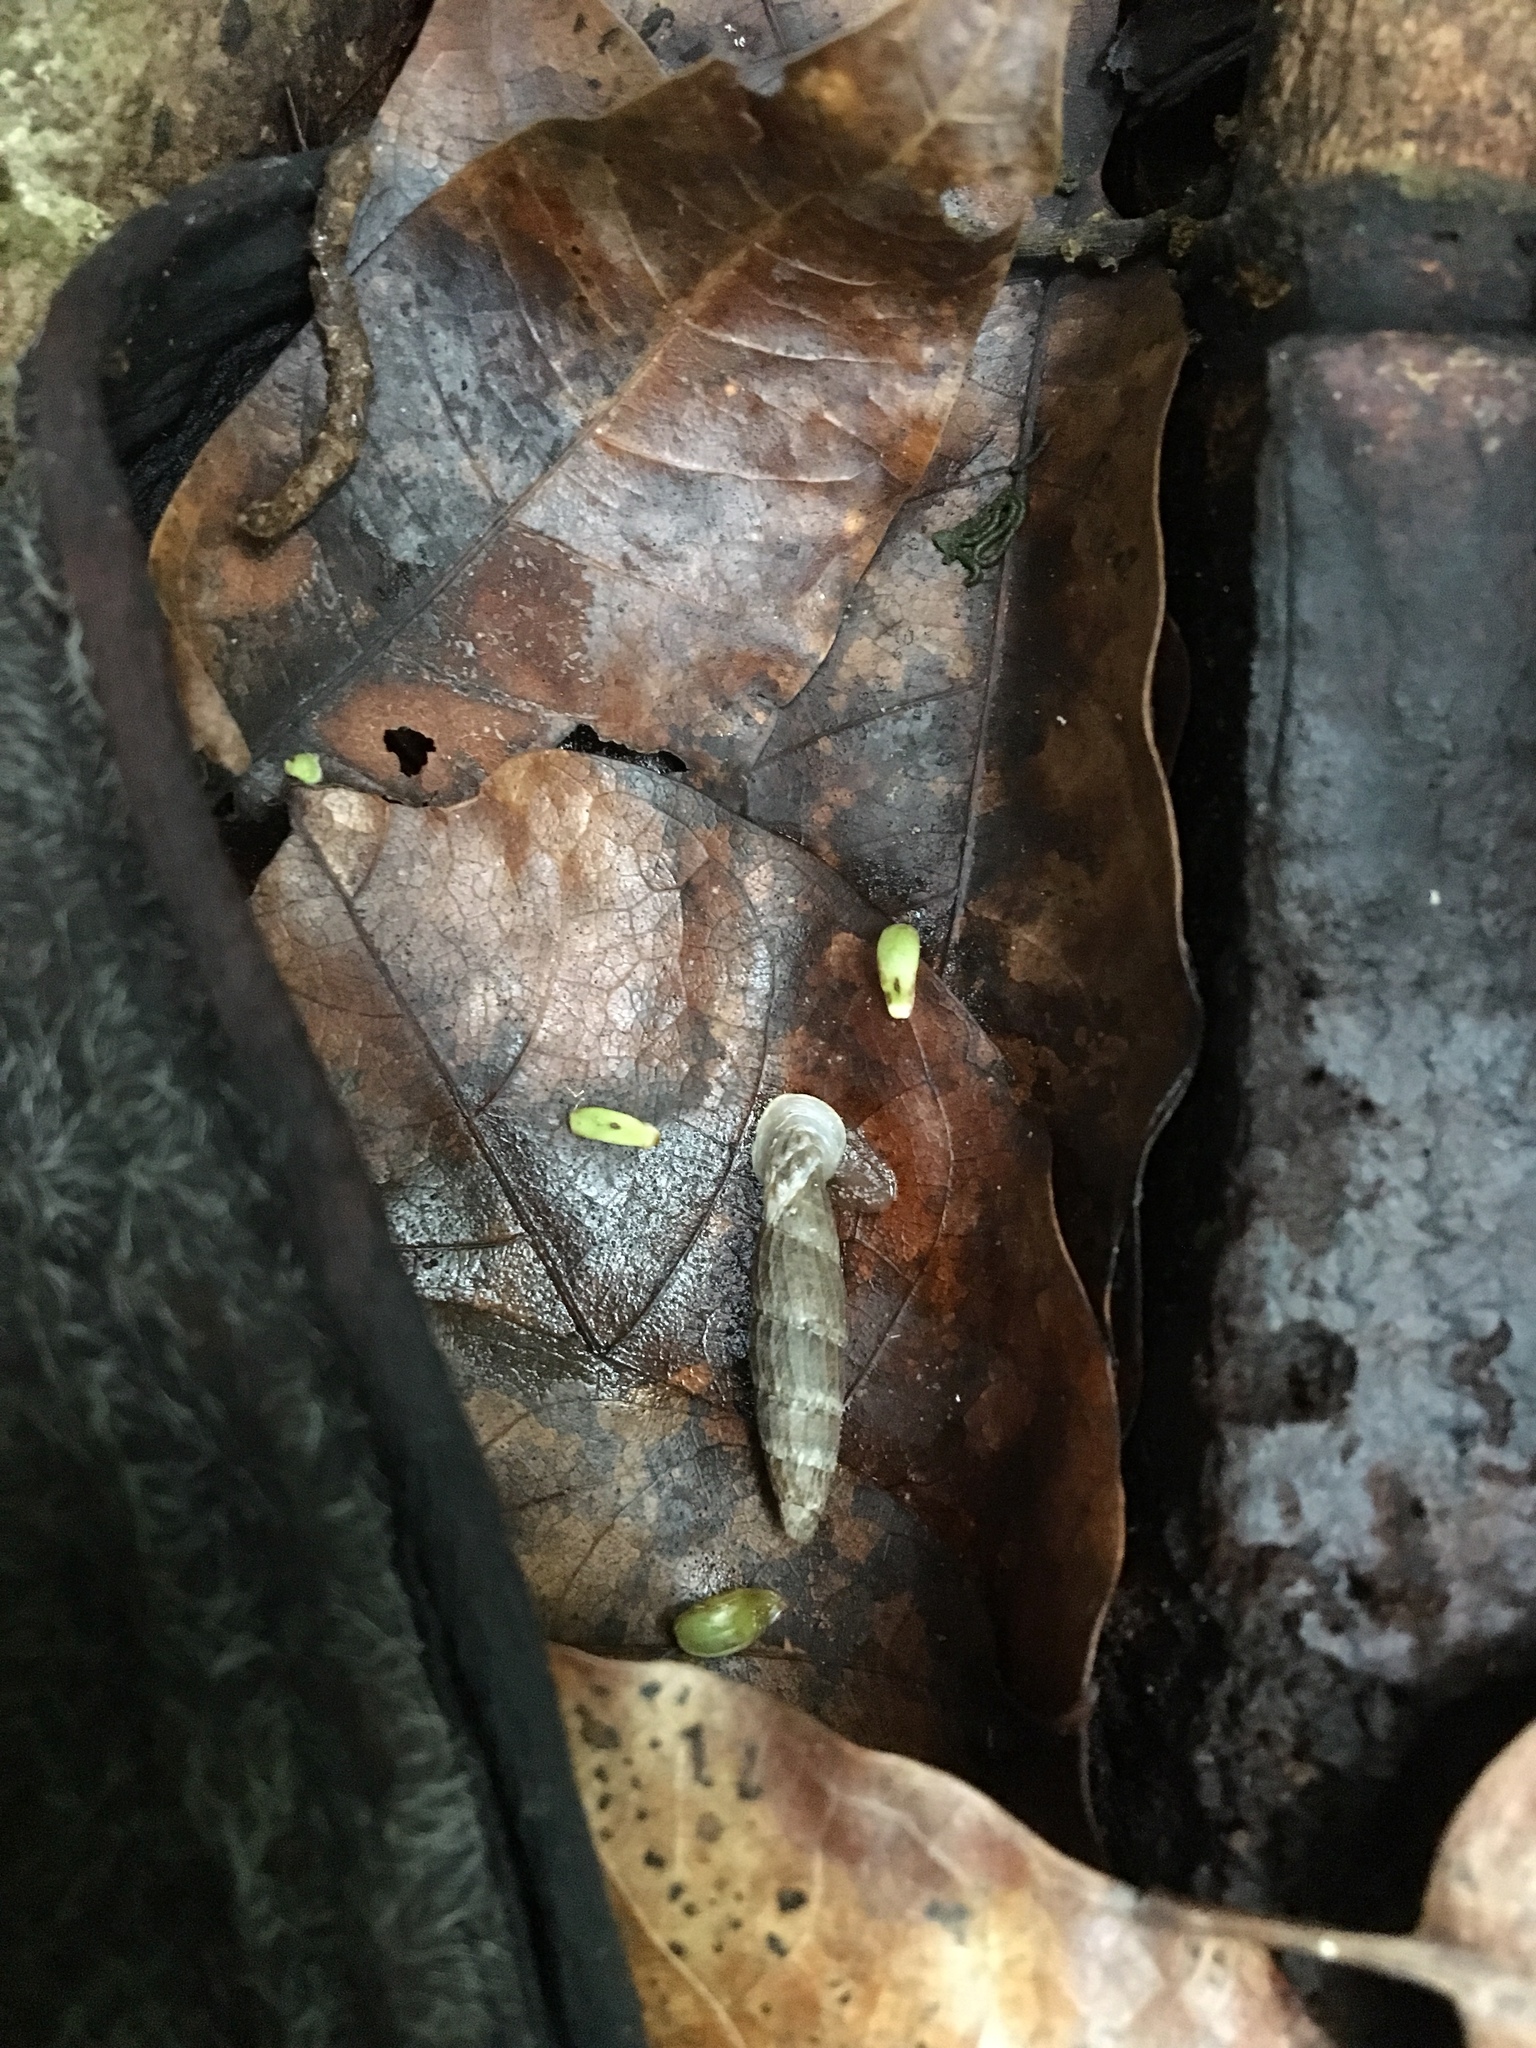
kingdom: Animalia
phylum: Mollusca
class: Gastropoda
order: Stylommatophora
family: Clausiliidae
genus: Nenia
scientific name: Nenia tridens
